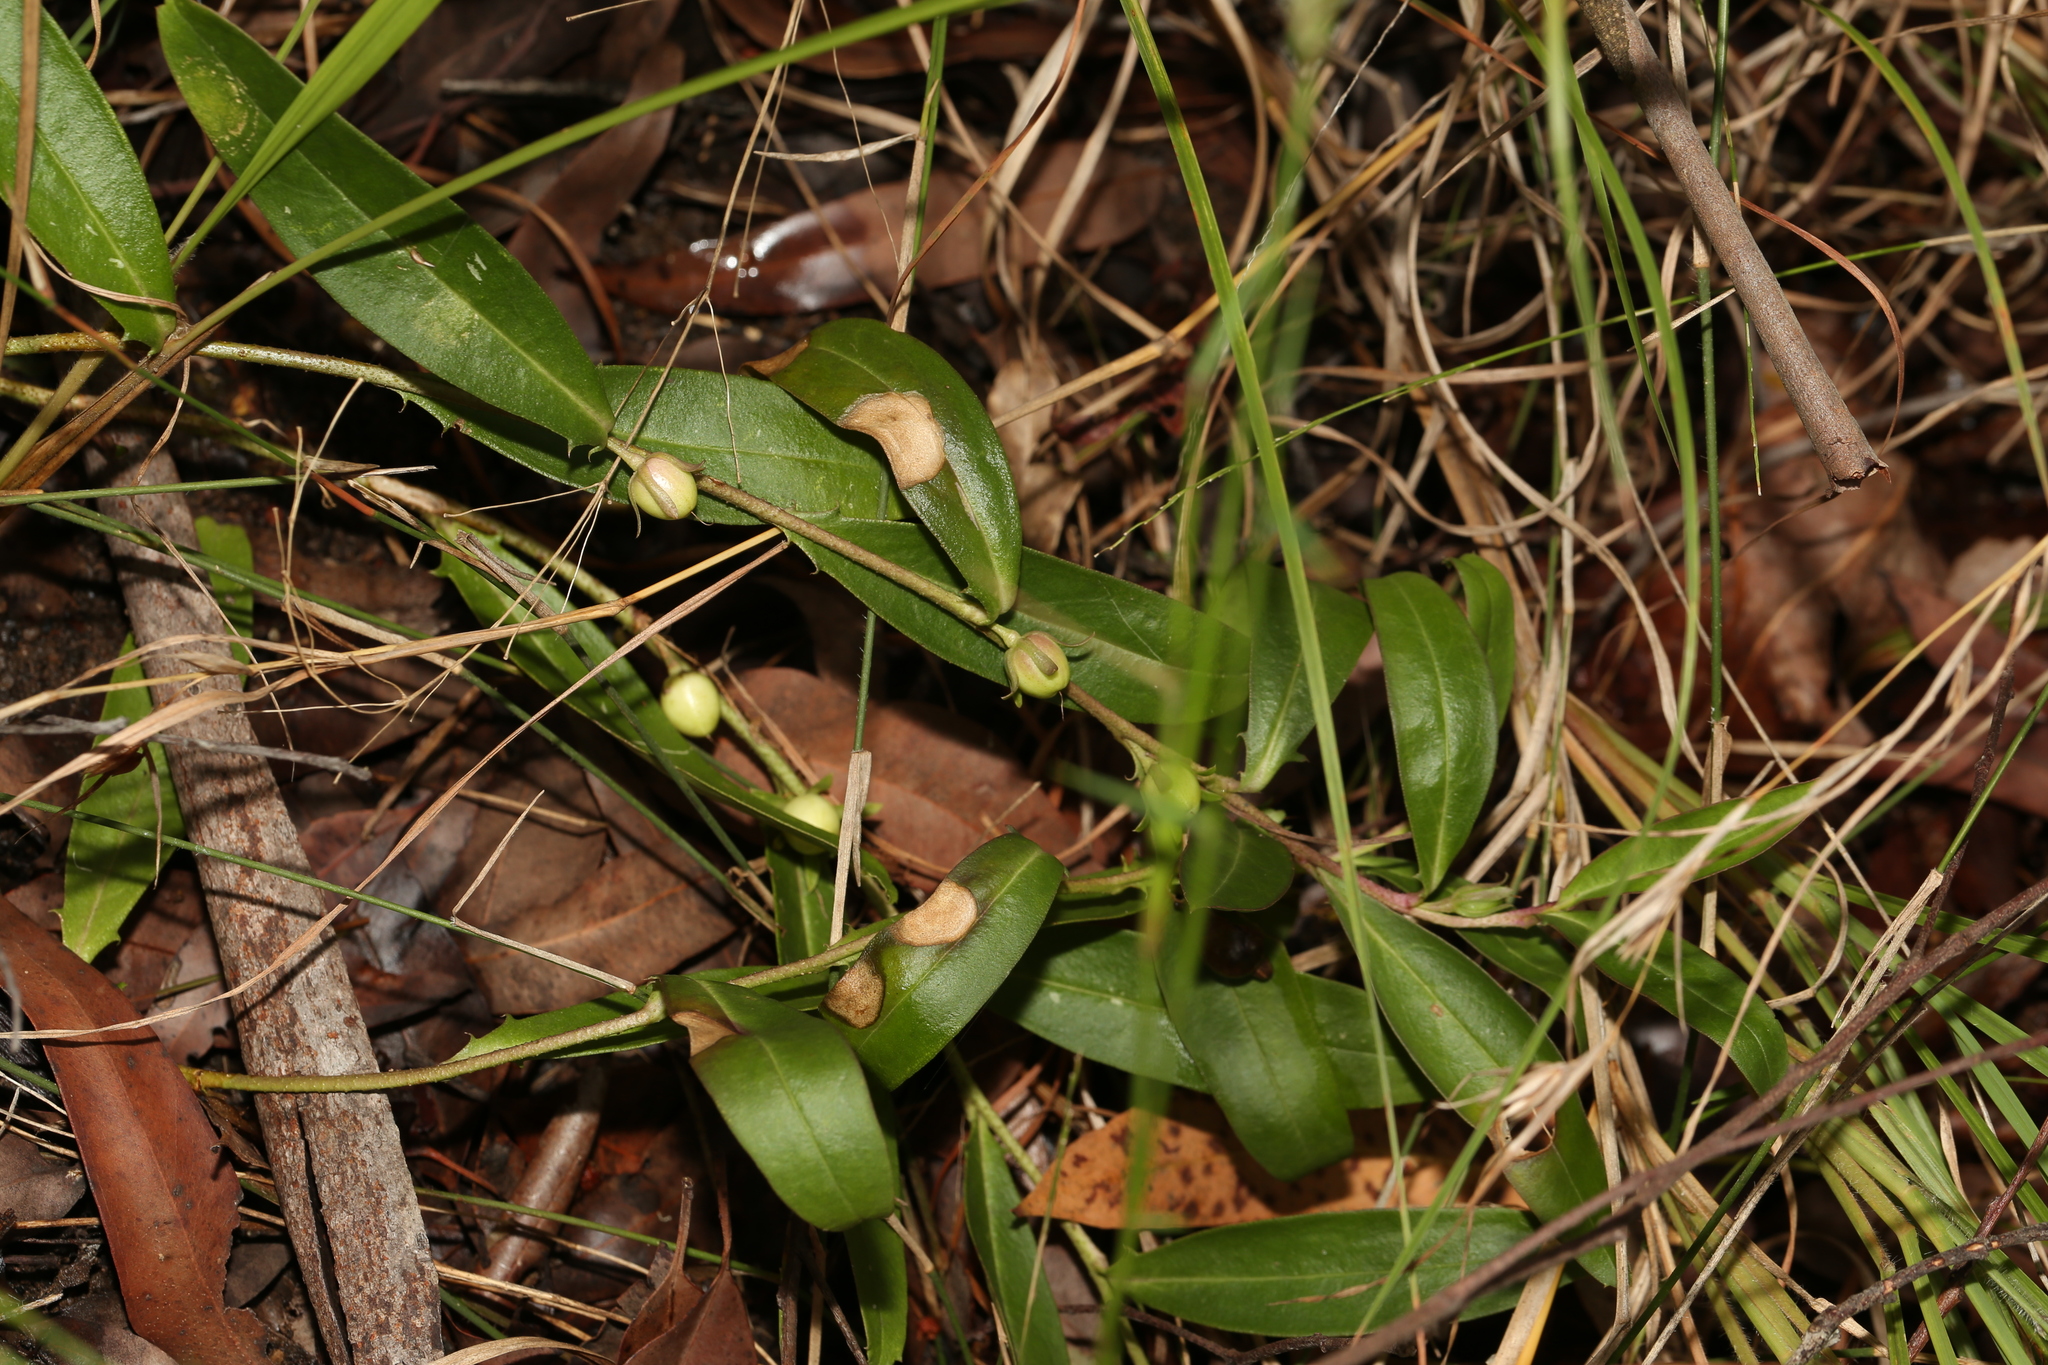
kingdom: Plantae
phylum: Tracheophyta
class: Magnoliopsida
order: Lamiales
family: Scrophulariaceae
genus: Eremophila
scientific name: Eremophila debilis
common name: Winter-apple
